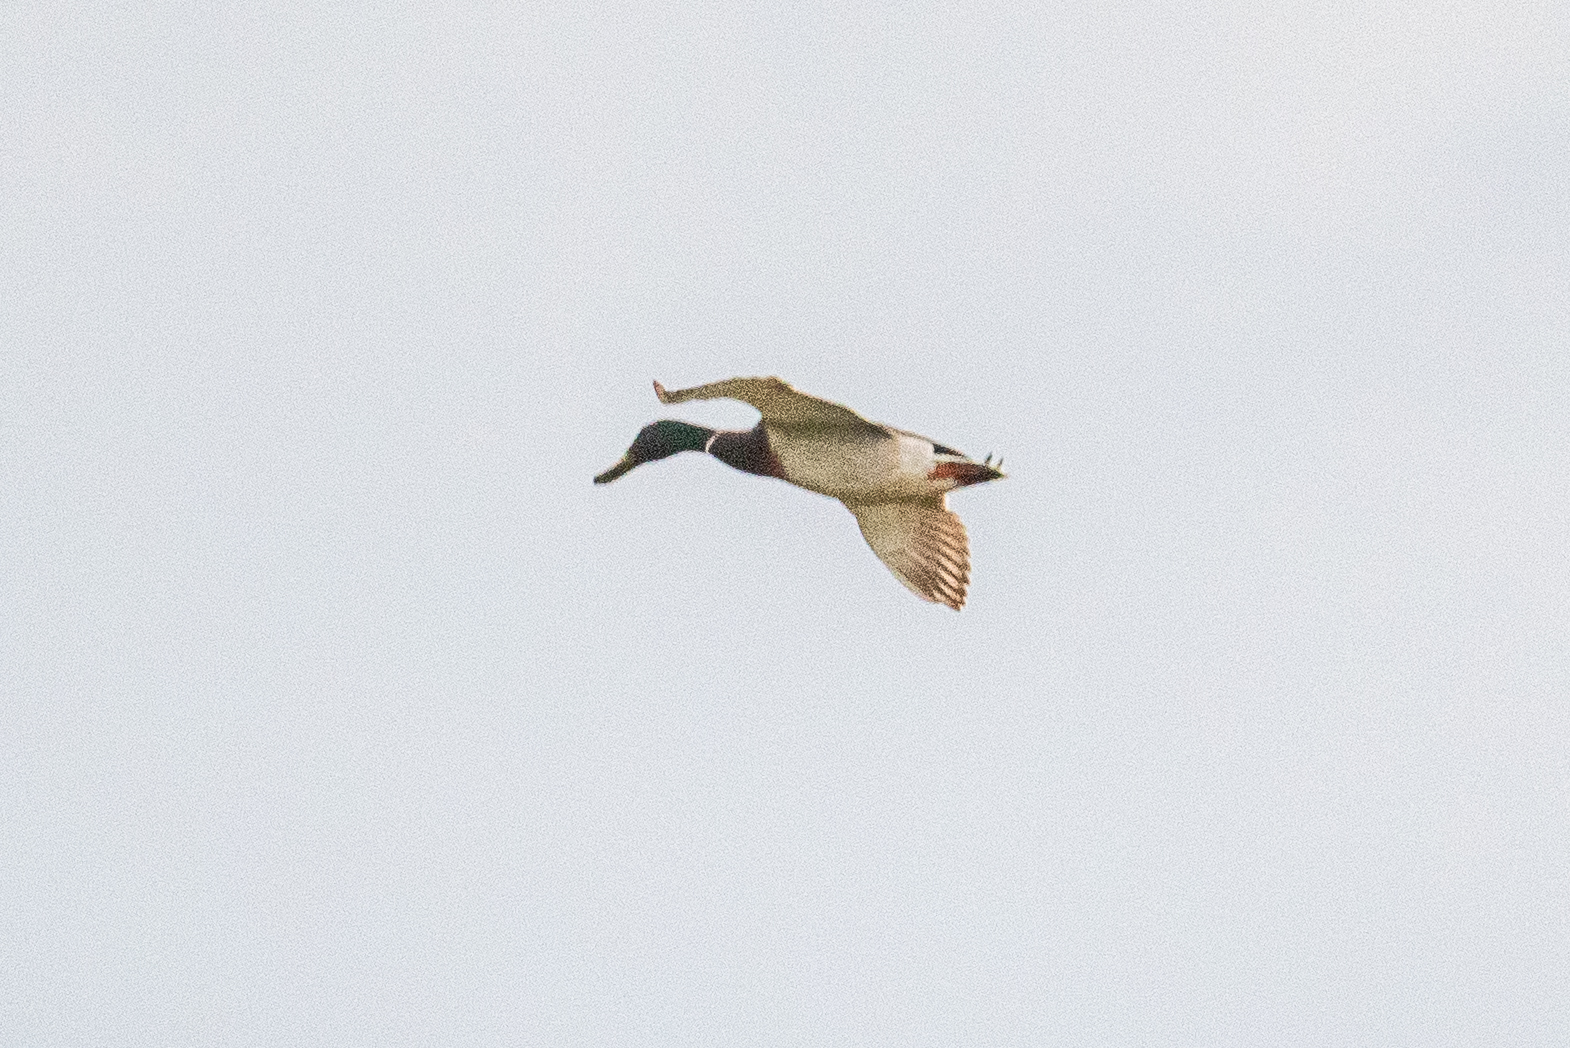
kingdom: Animalia
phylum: Chordata
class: Aves
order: Anseriformes
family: Anatidae
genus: Anas
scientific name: Anas platyrhynchos
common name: Mallard
